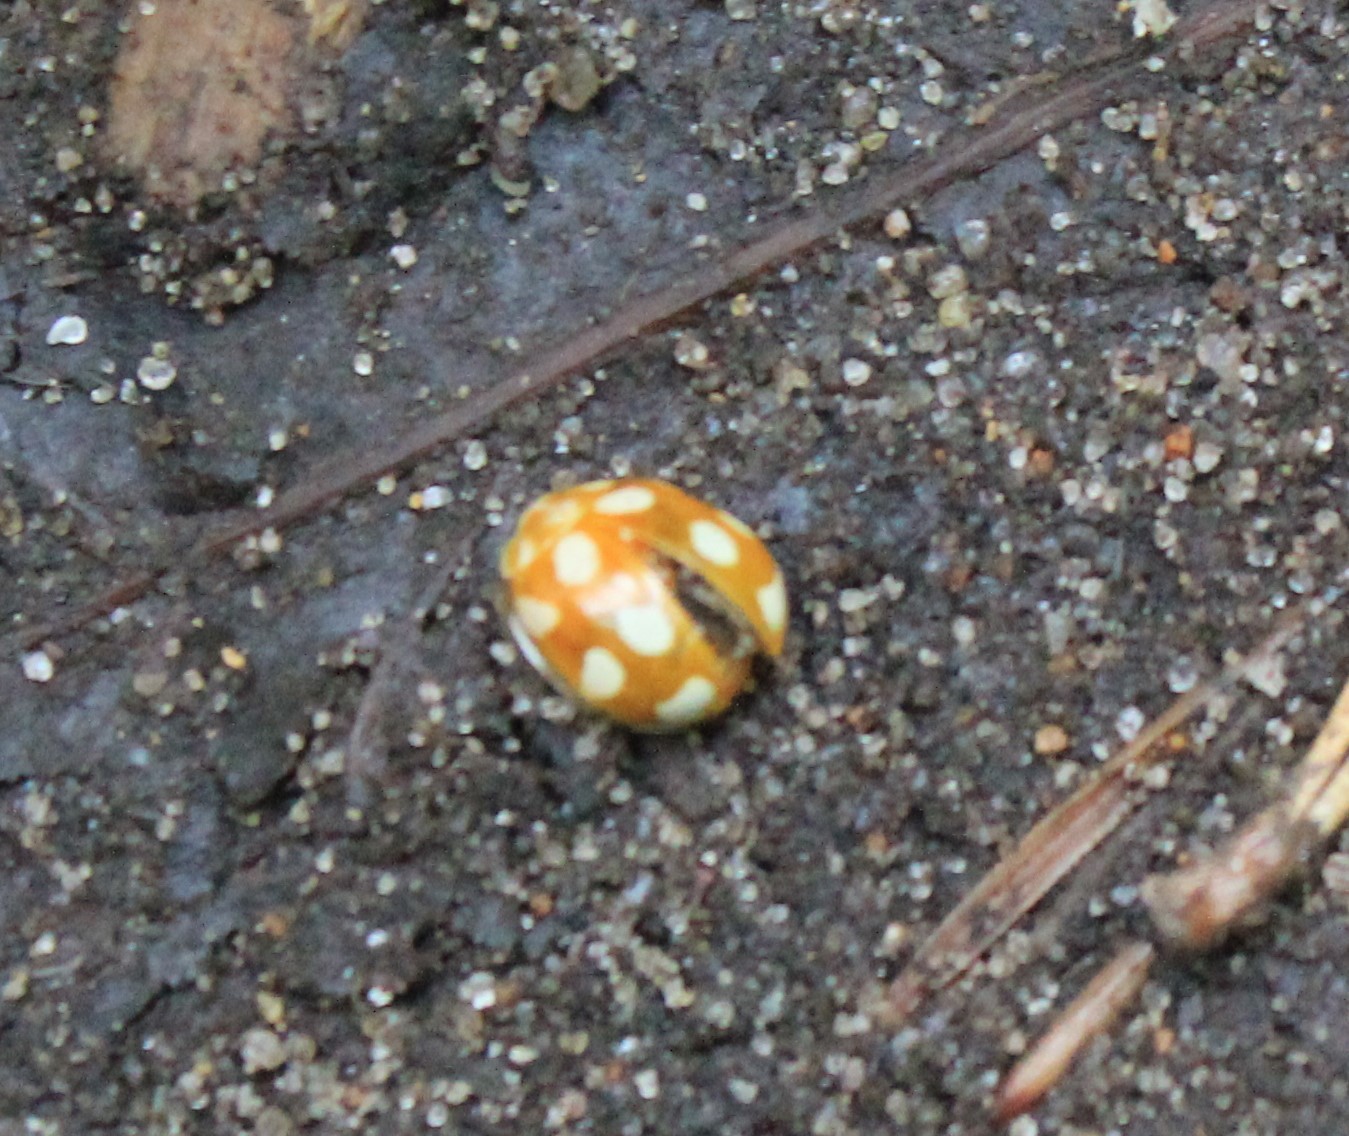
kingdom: Animalia
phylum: Arthropoda
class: Insecta
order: Coleoptera
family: Coccinellidae
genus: Calvia
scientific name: Calvia decemguttata
